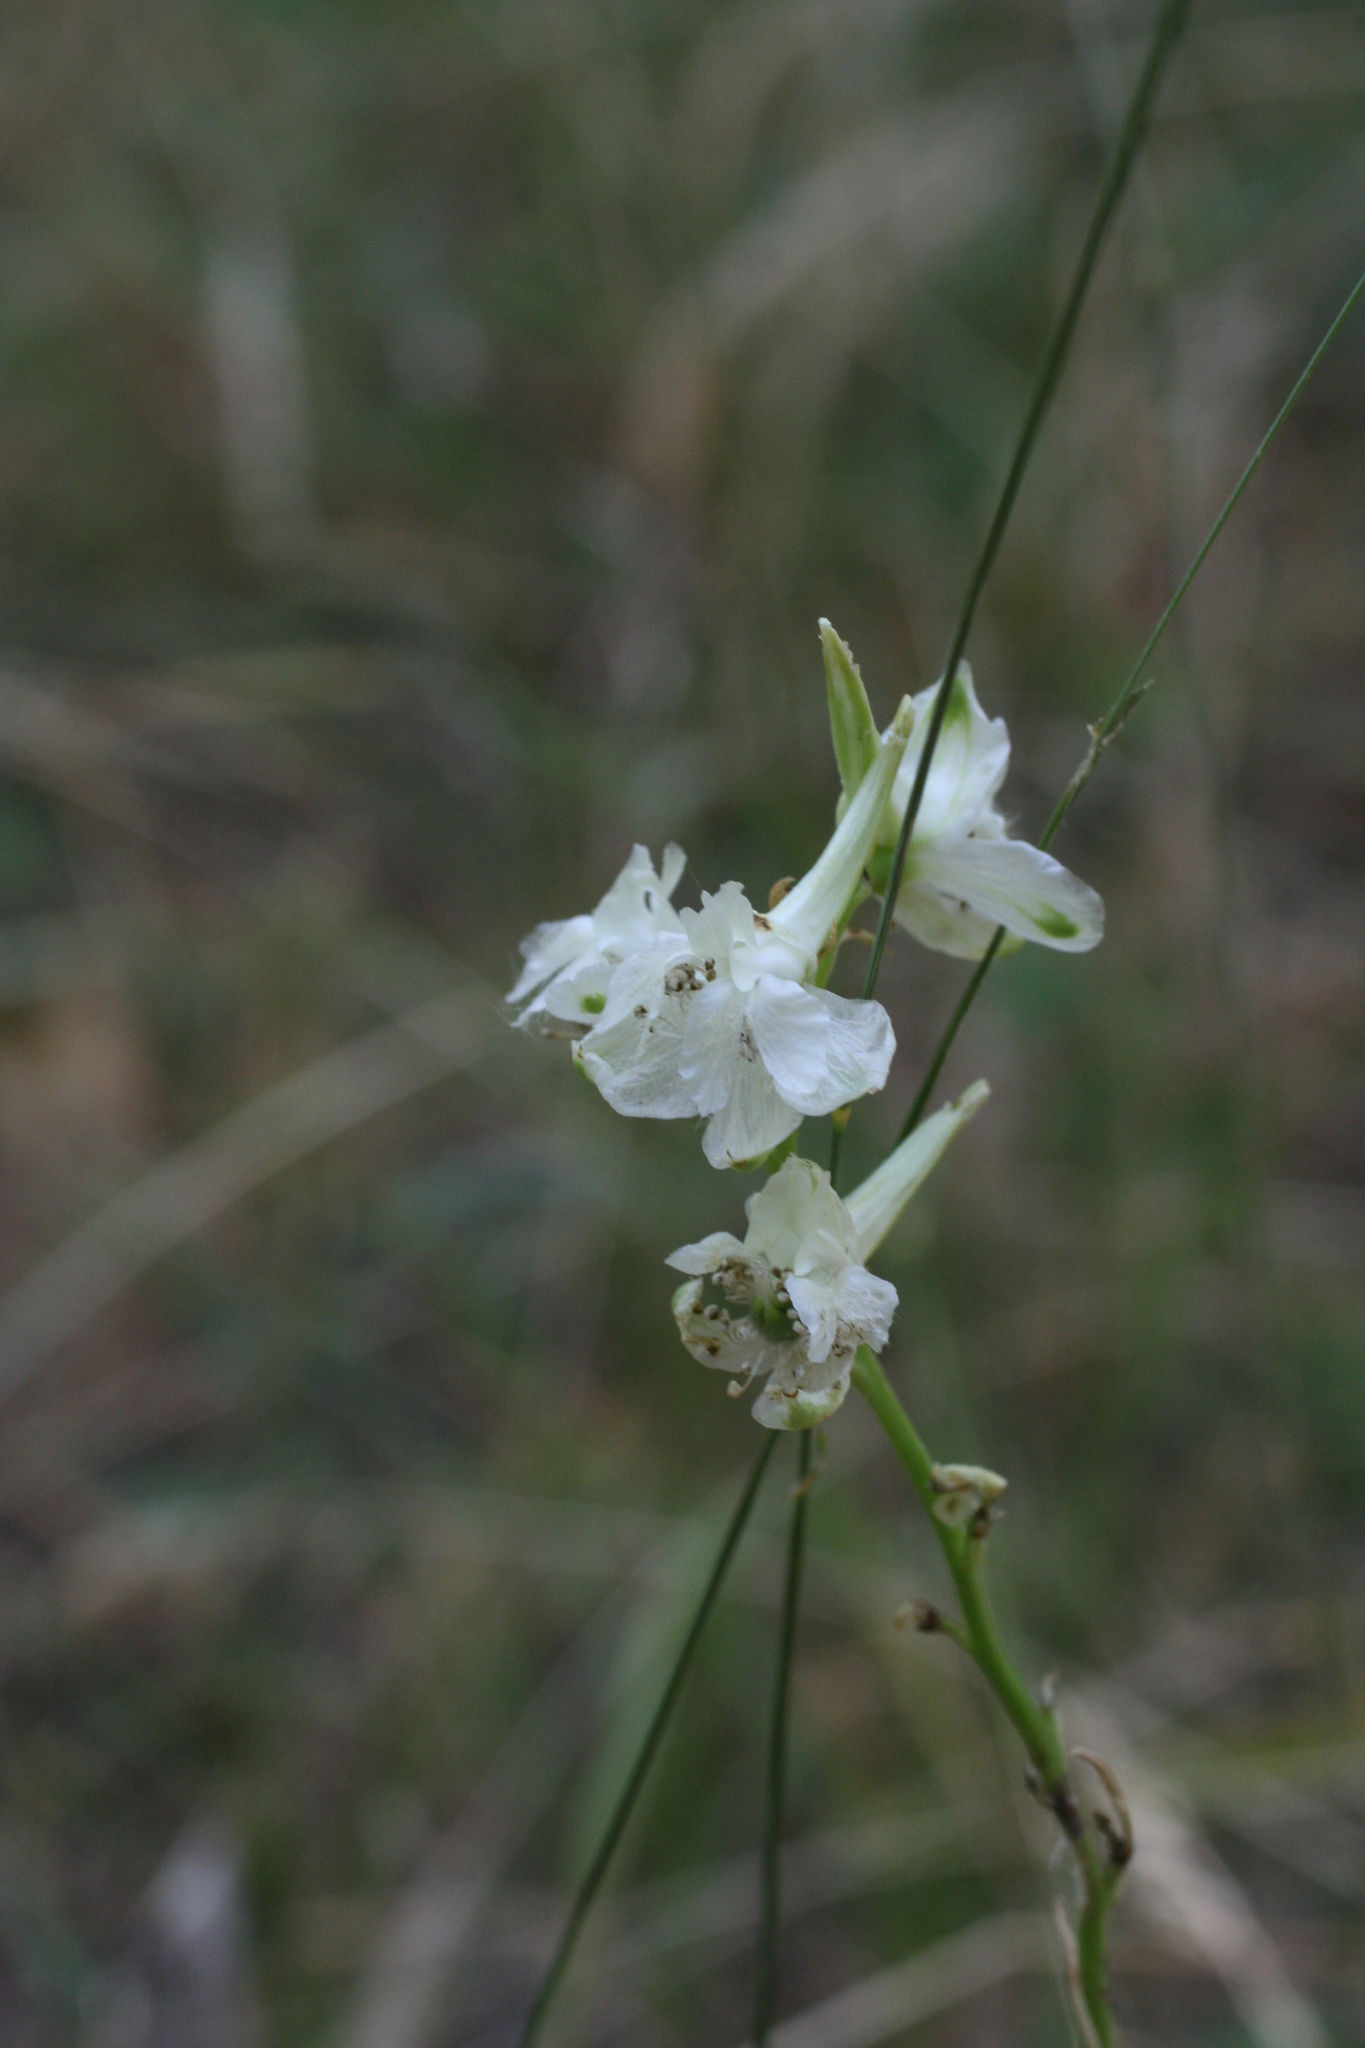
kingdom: Plantae
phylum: Tracheophyta
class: Magnoliopsida
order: Ranunculales
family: Ranunculaceae
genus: Delphinium
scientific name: Delphinium macropogon
